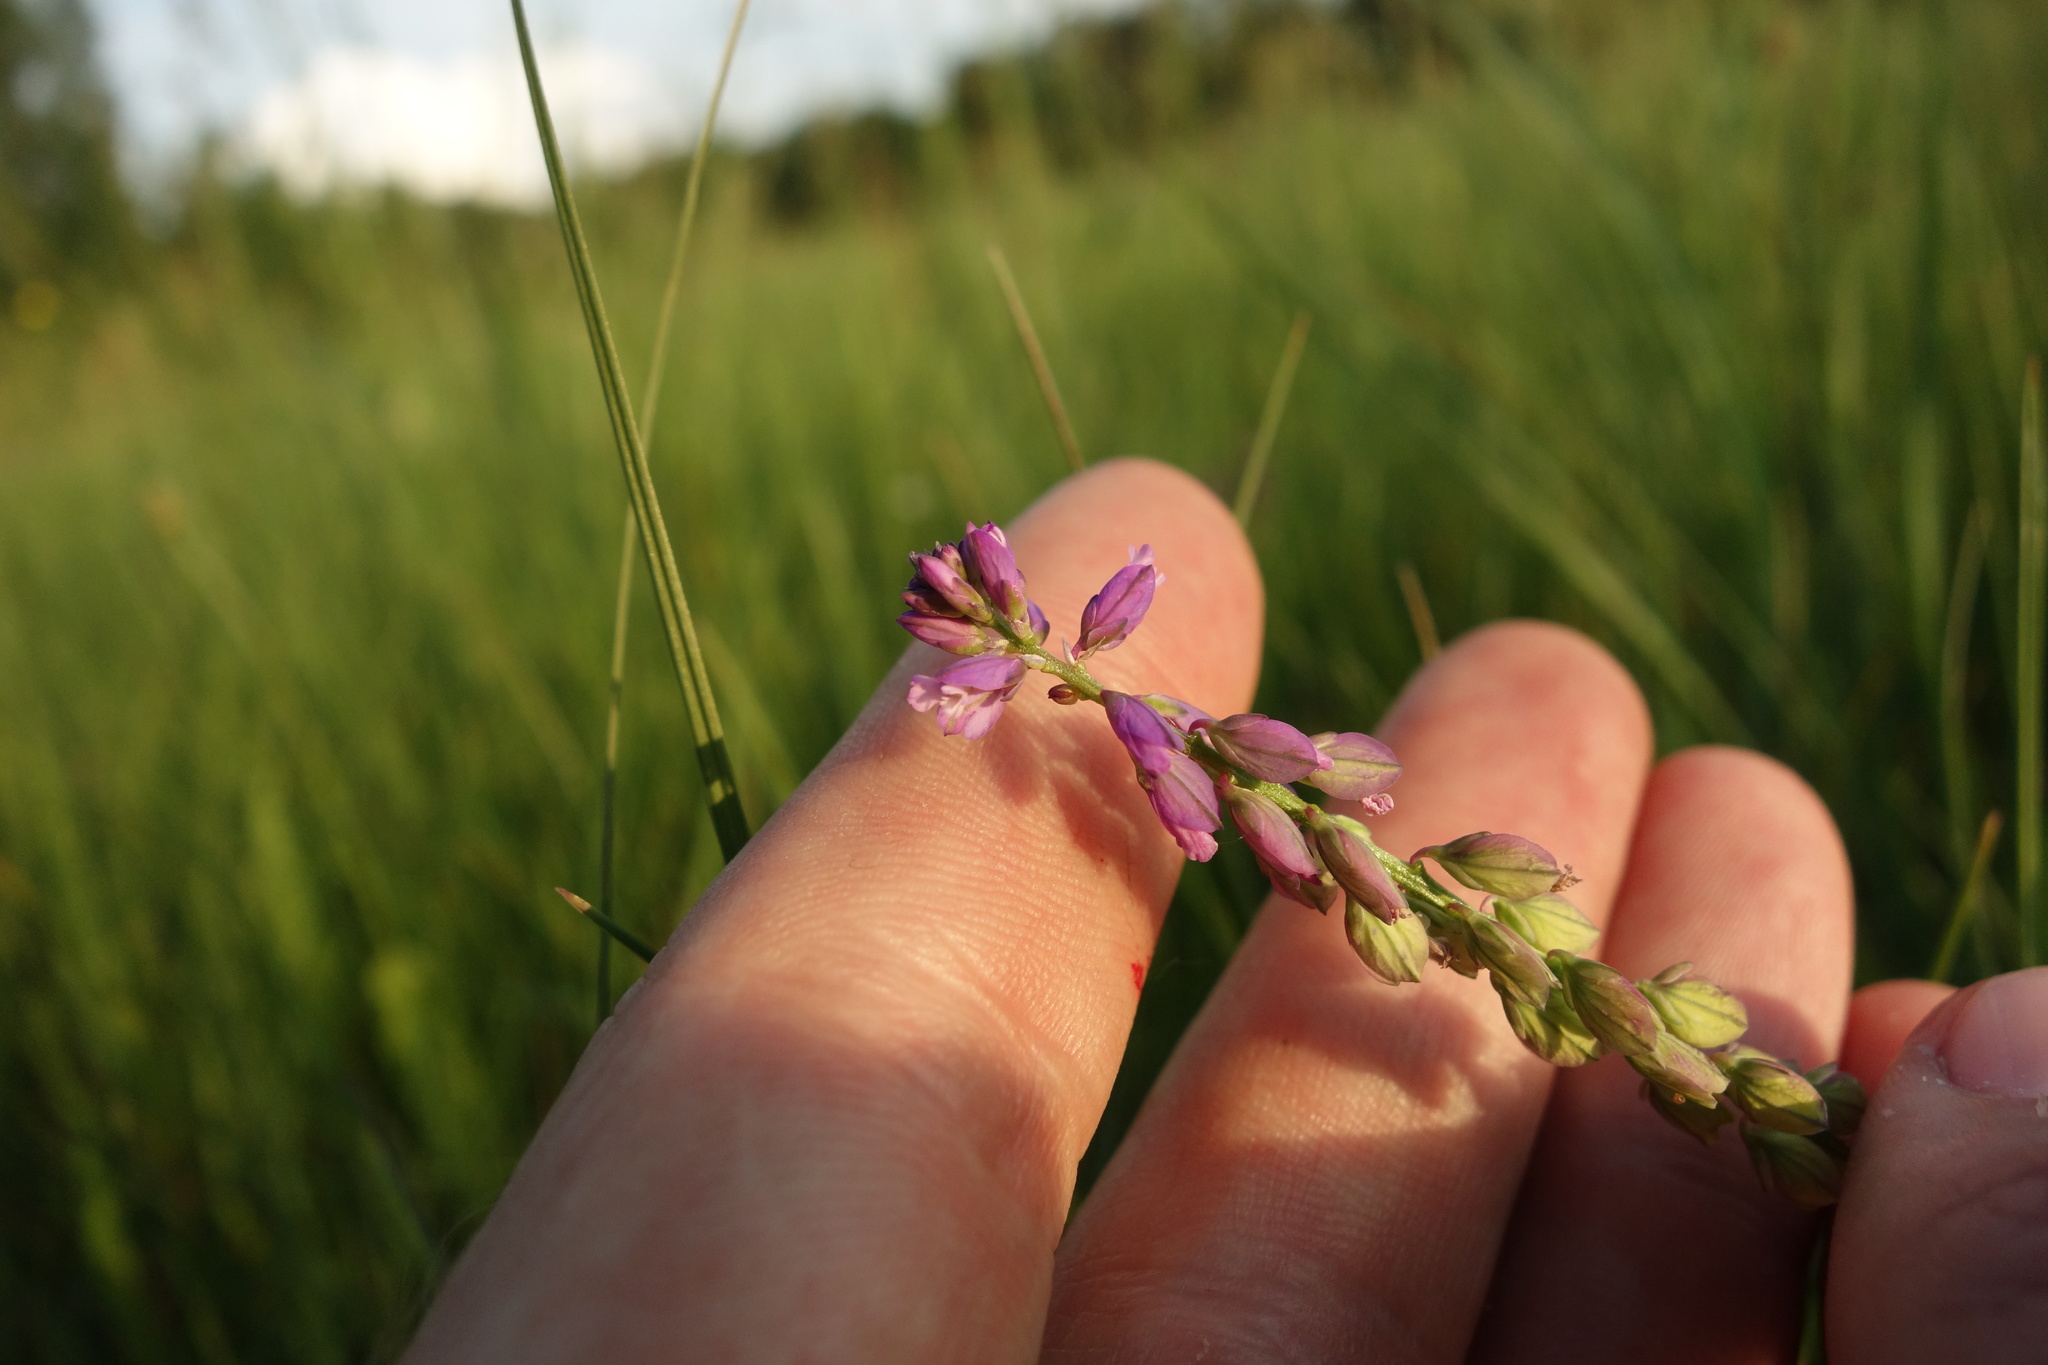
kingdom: Plantae
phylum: Tracheophyta
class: Magnoliopsida
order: Fabales
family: Polygalaceae
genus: Polygala
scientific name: Polygala comosa
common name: Tufted milkwort
